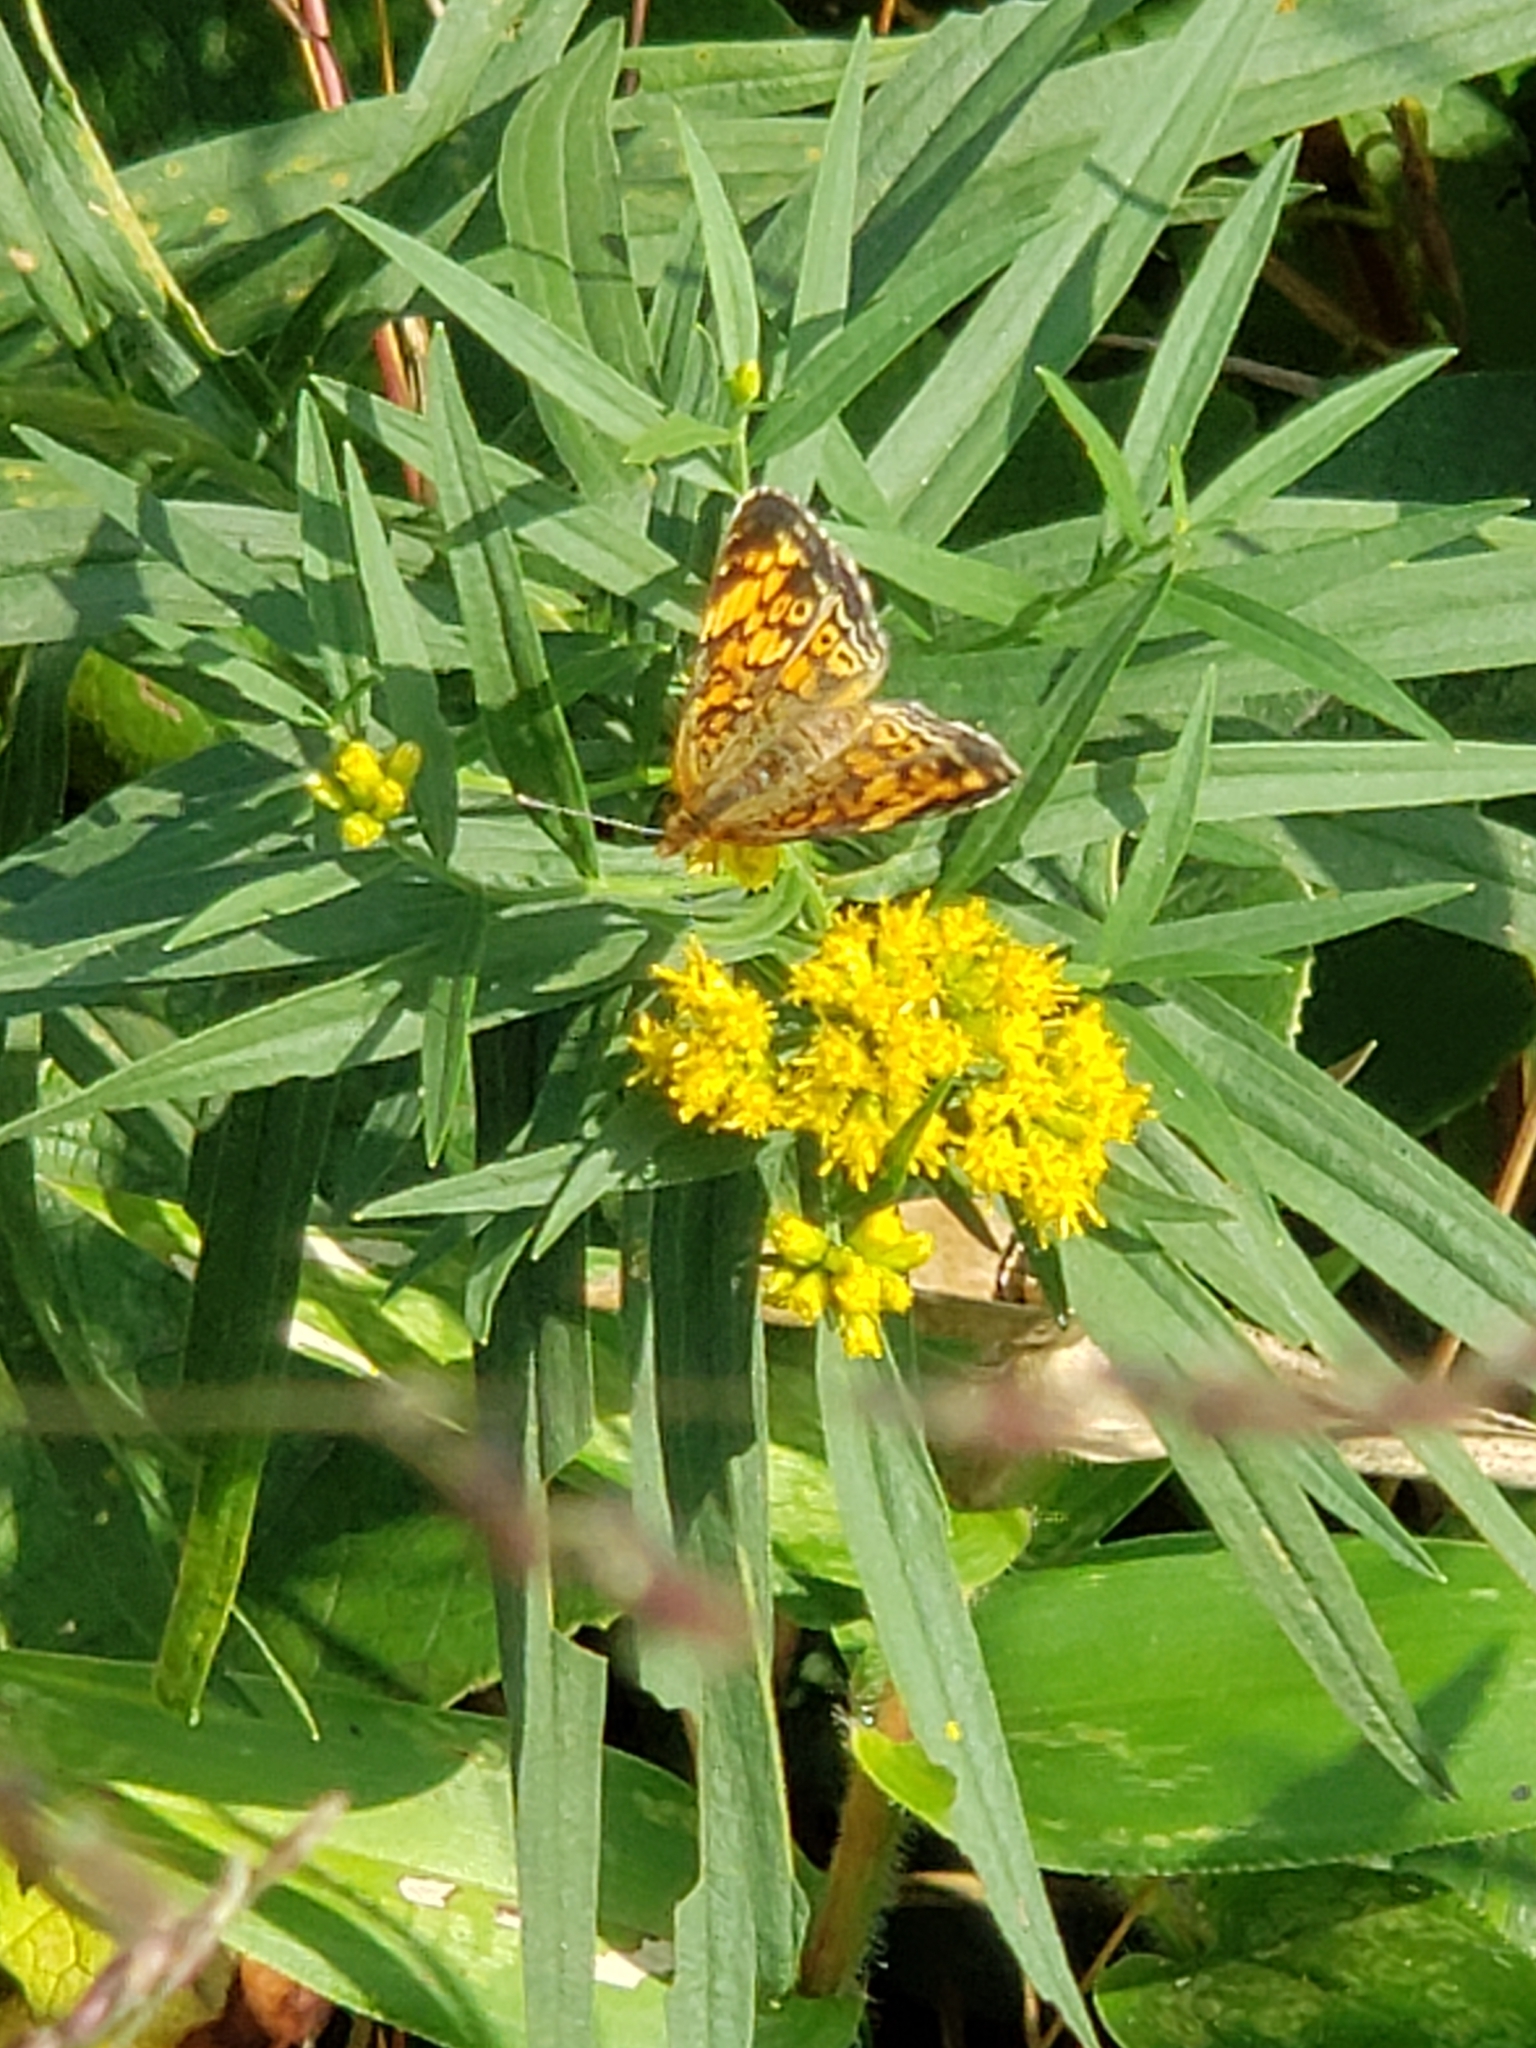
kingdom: Animalia
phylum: Arthropoda
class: Insecta
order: Lepidoptera
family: Nymphalidae
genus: Phyciodes
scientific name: Phyciodes tharos
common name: Pearl crescent
